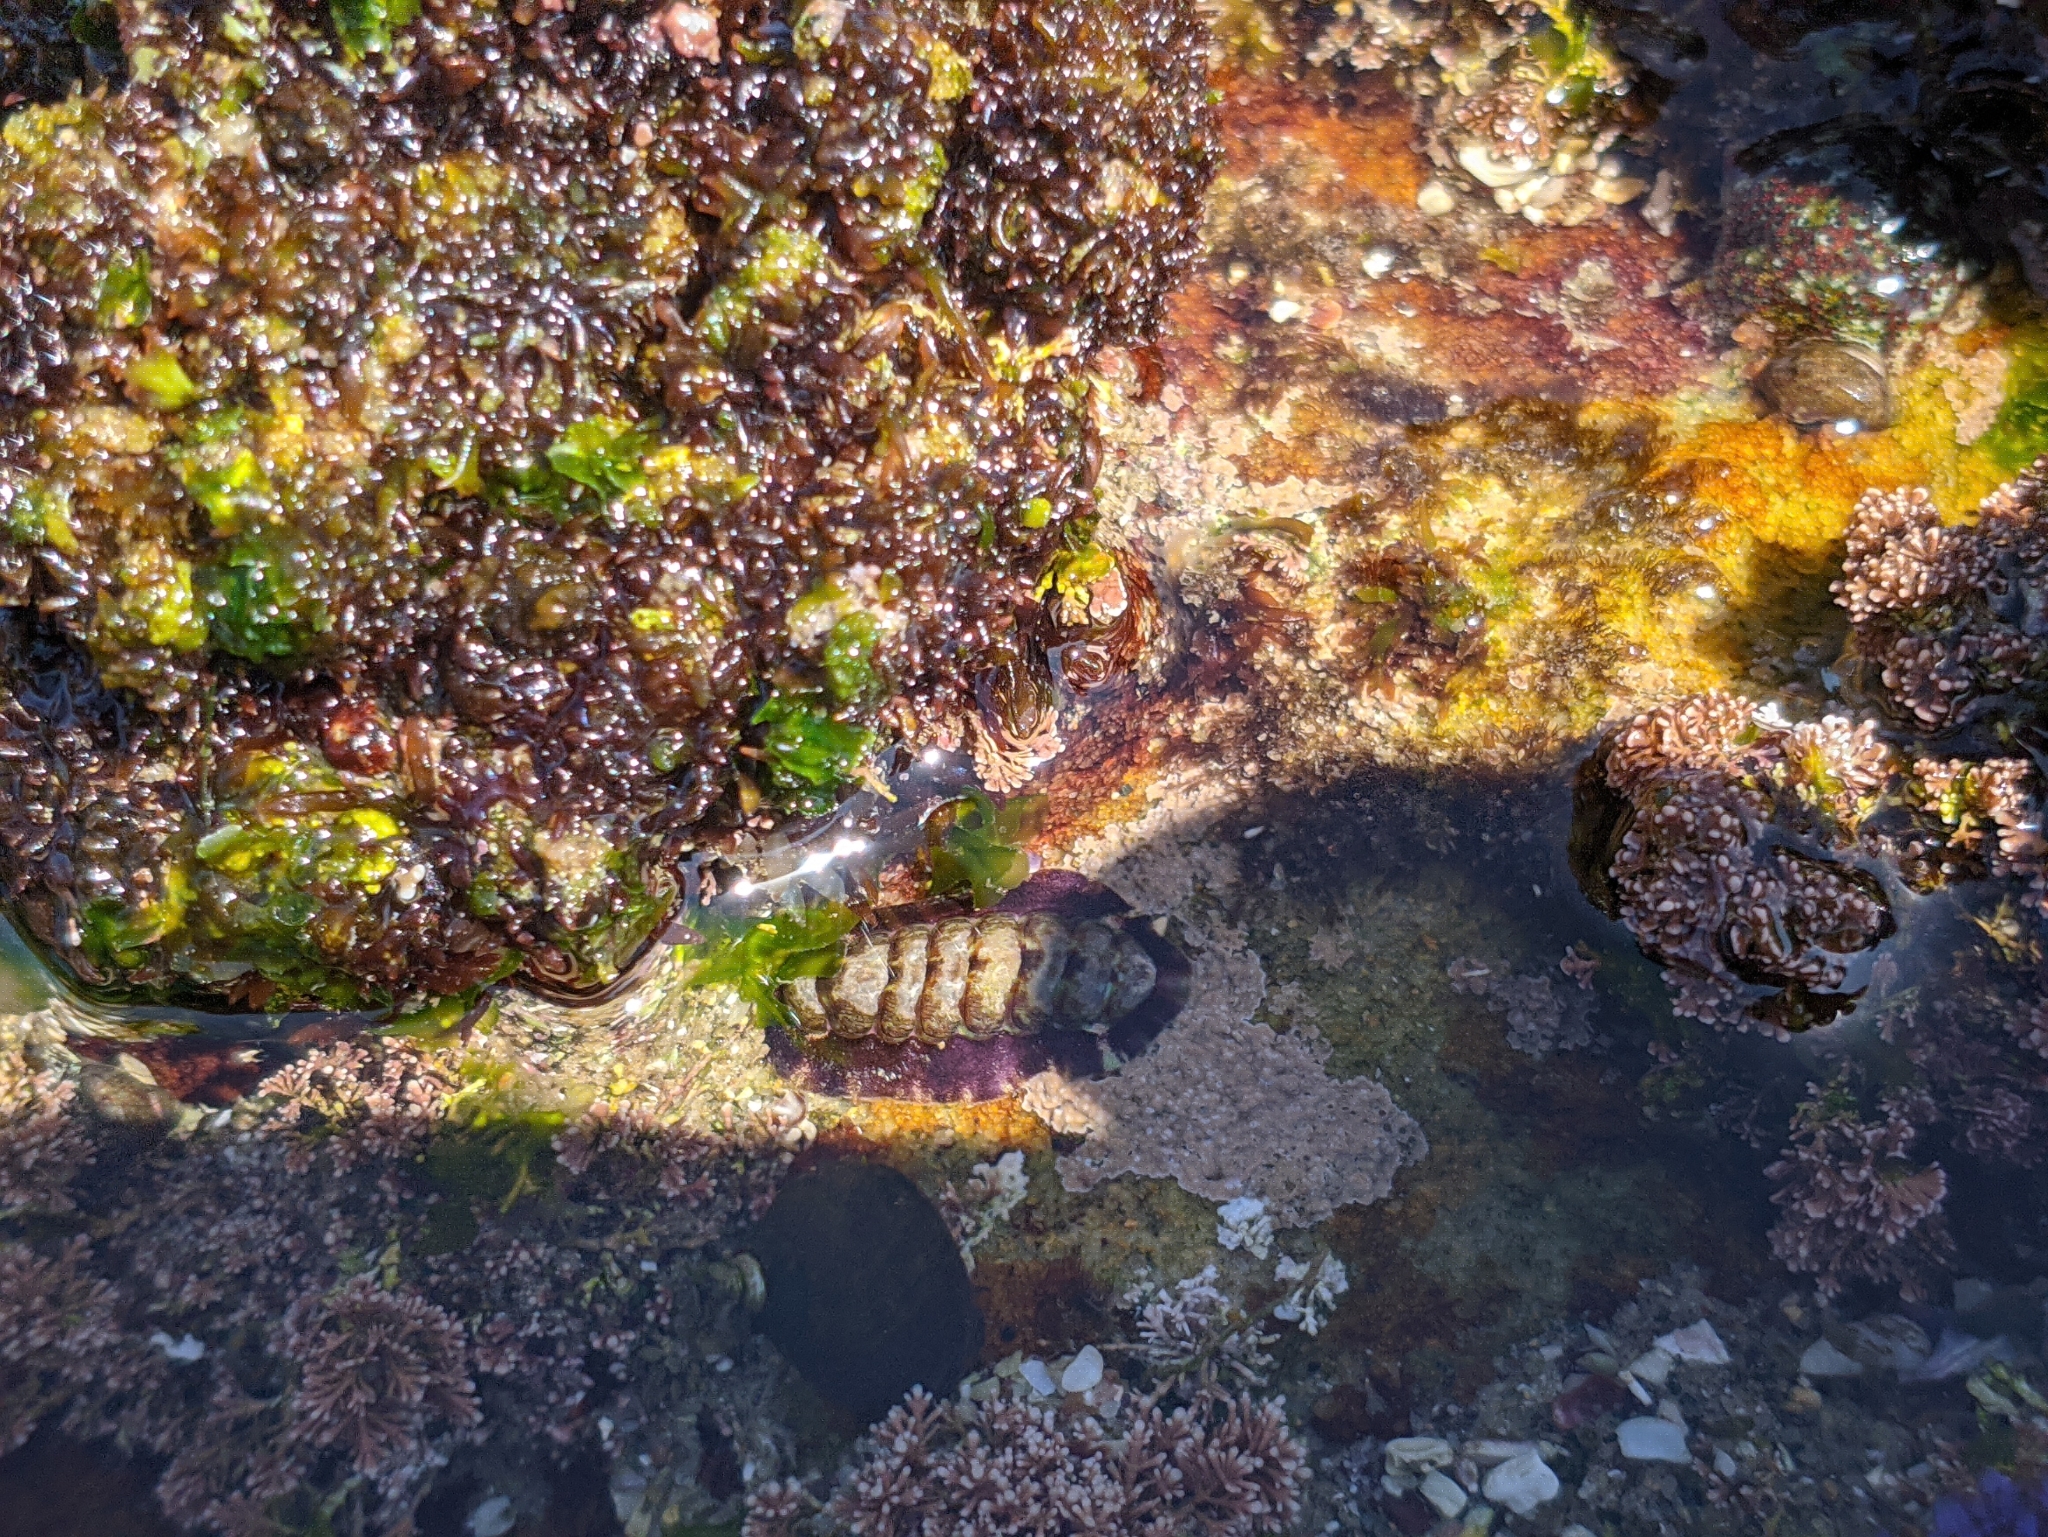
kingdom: Animalia
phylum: Mollusca
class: Polyplacophora
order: Chitonida
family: Chitonidae
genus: Onithochiton
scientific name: Onithochiton quercinus
